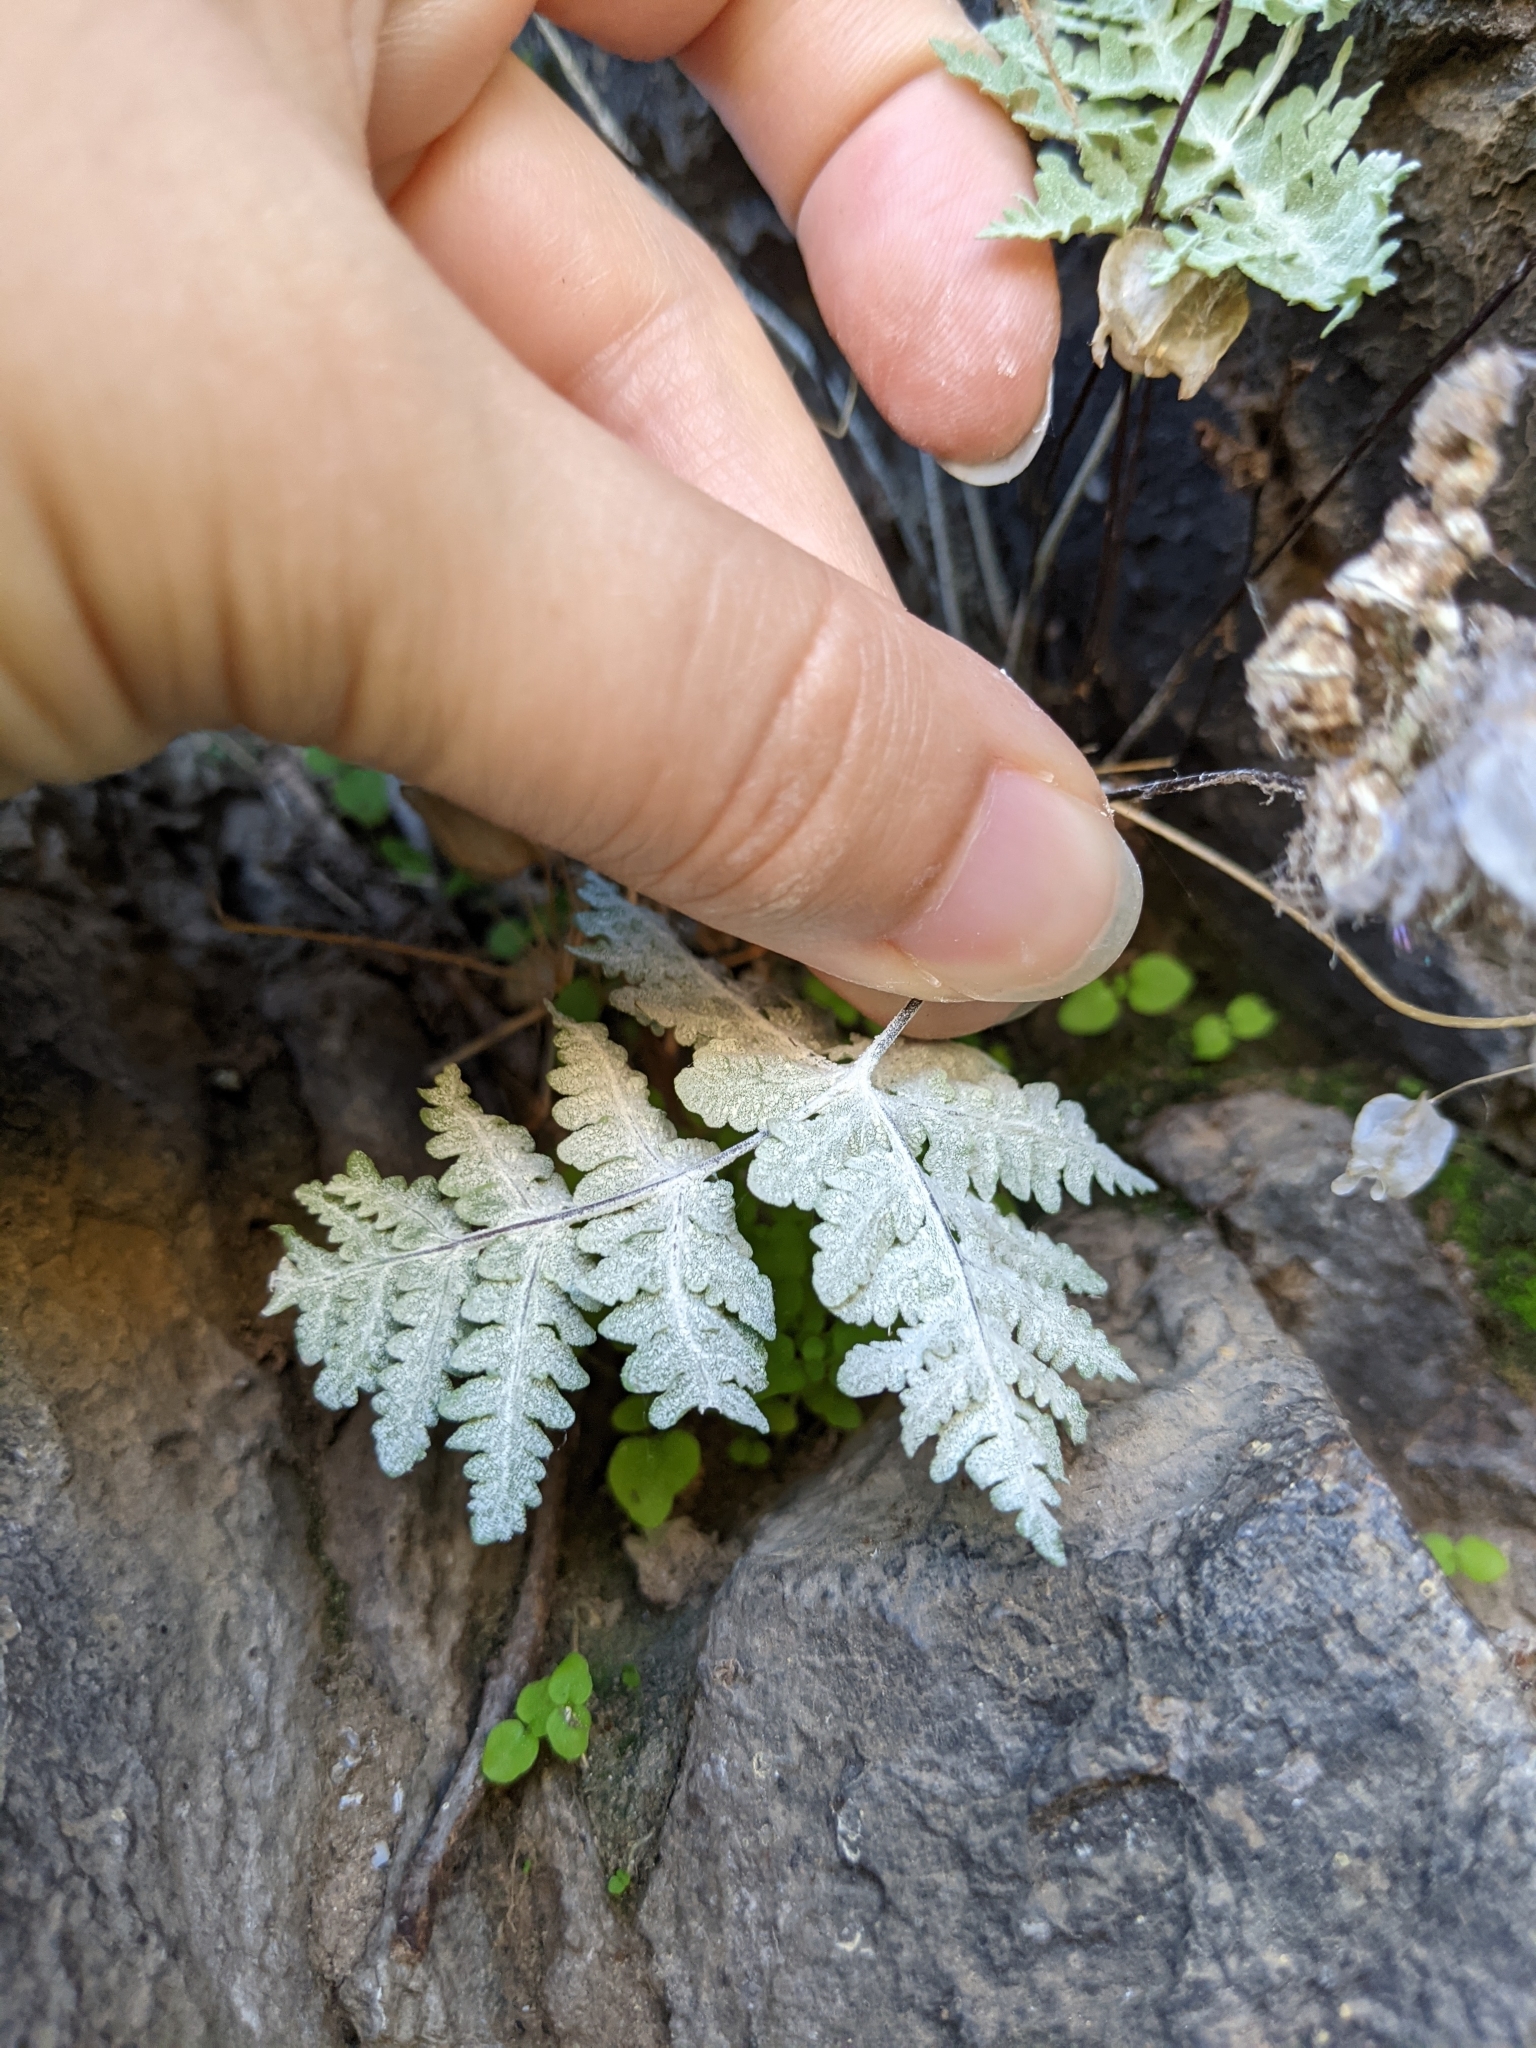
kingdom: Plantae
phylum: Tracheophyta
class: Polypodiopsida
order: Polypodiales
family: Pteridaceae
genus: Pentagramma
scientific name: Pentagramma pallida
